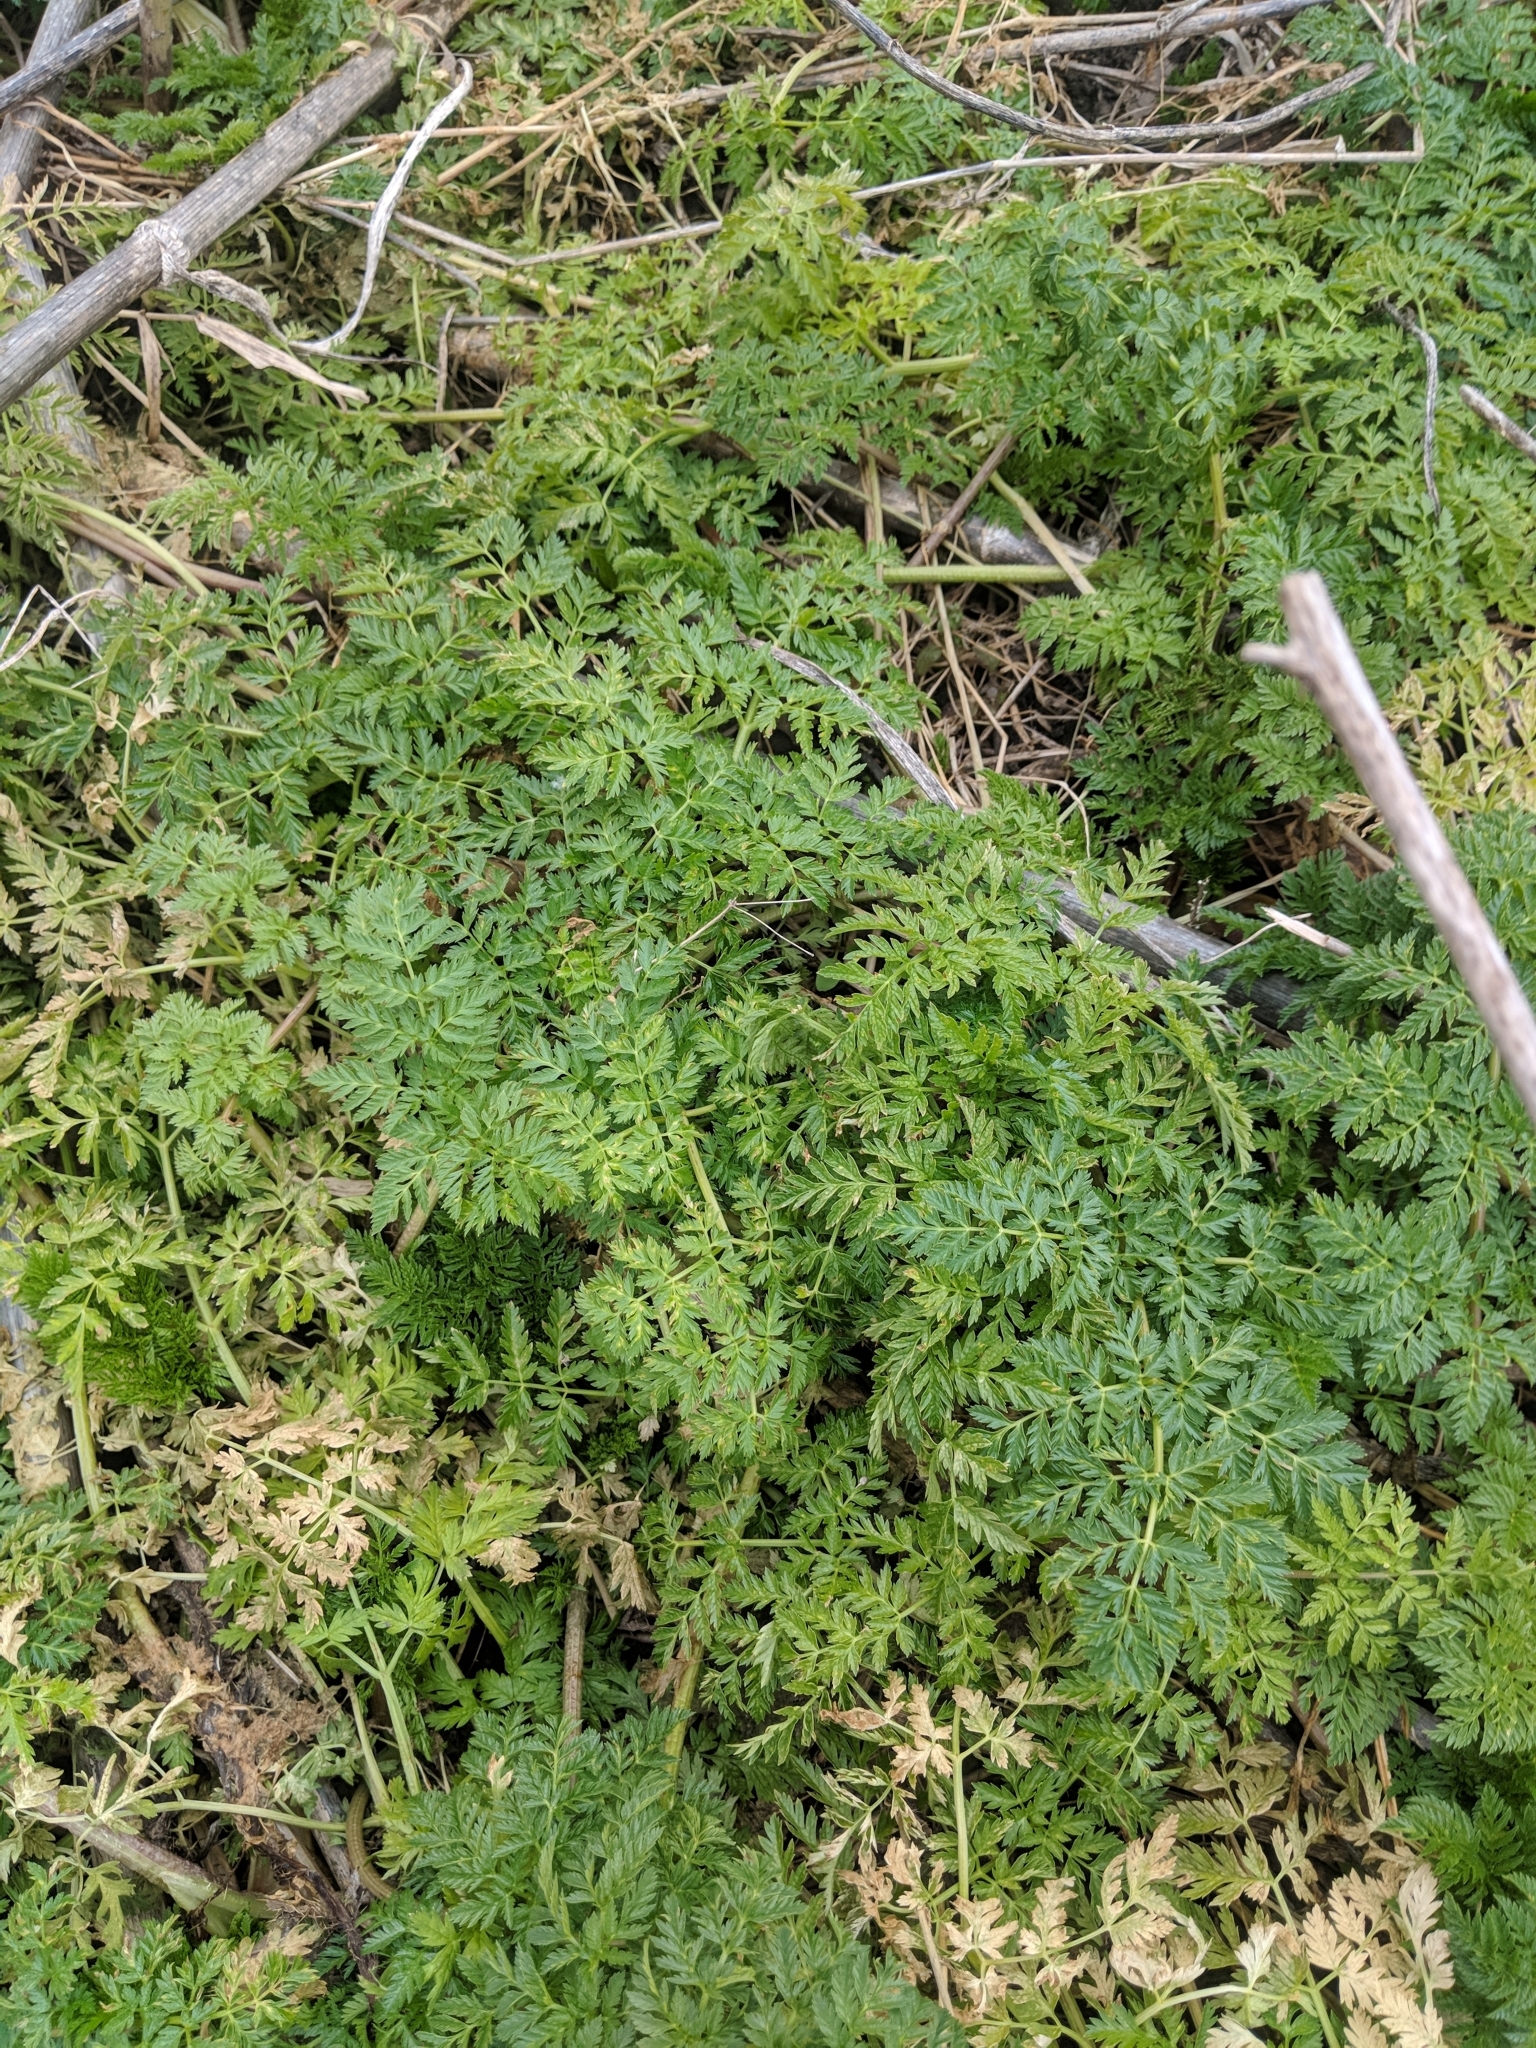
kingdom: Plantae
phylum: Tracheophyta
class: Magnoliopsida
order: Apiales
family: Apiaceae
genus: Conium
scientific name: Conium maculatum
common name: Hemlock
